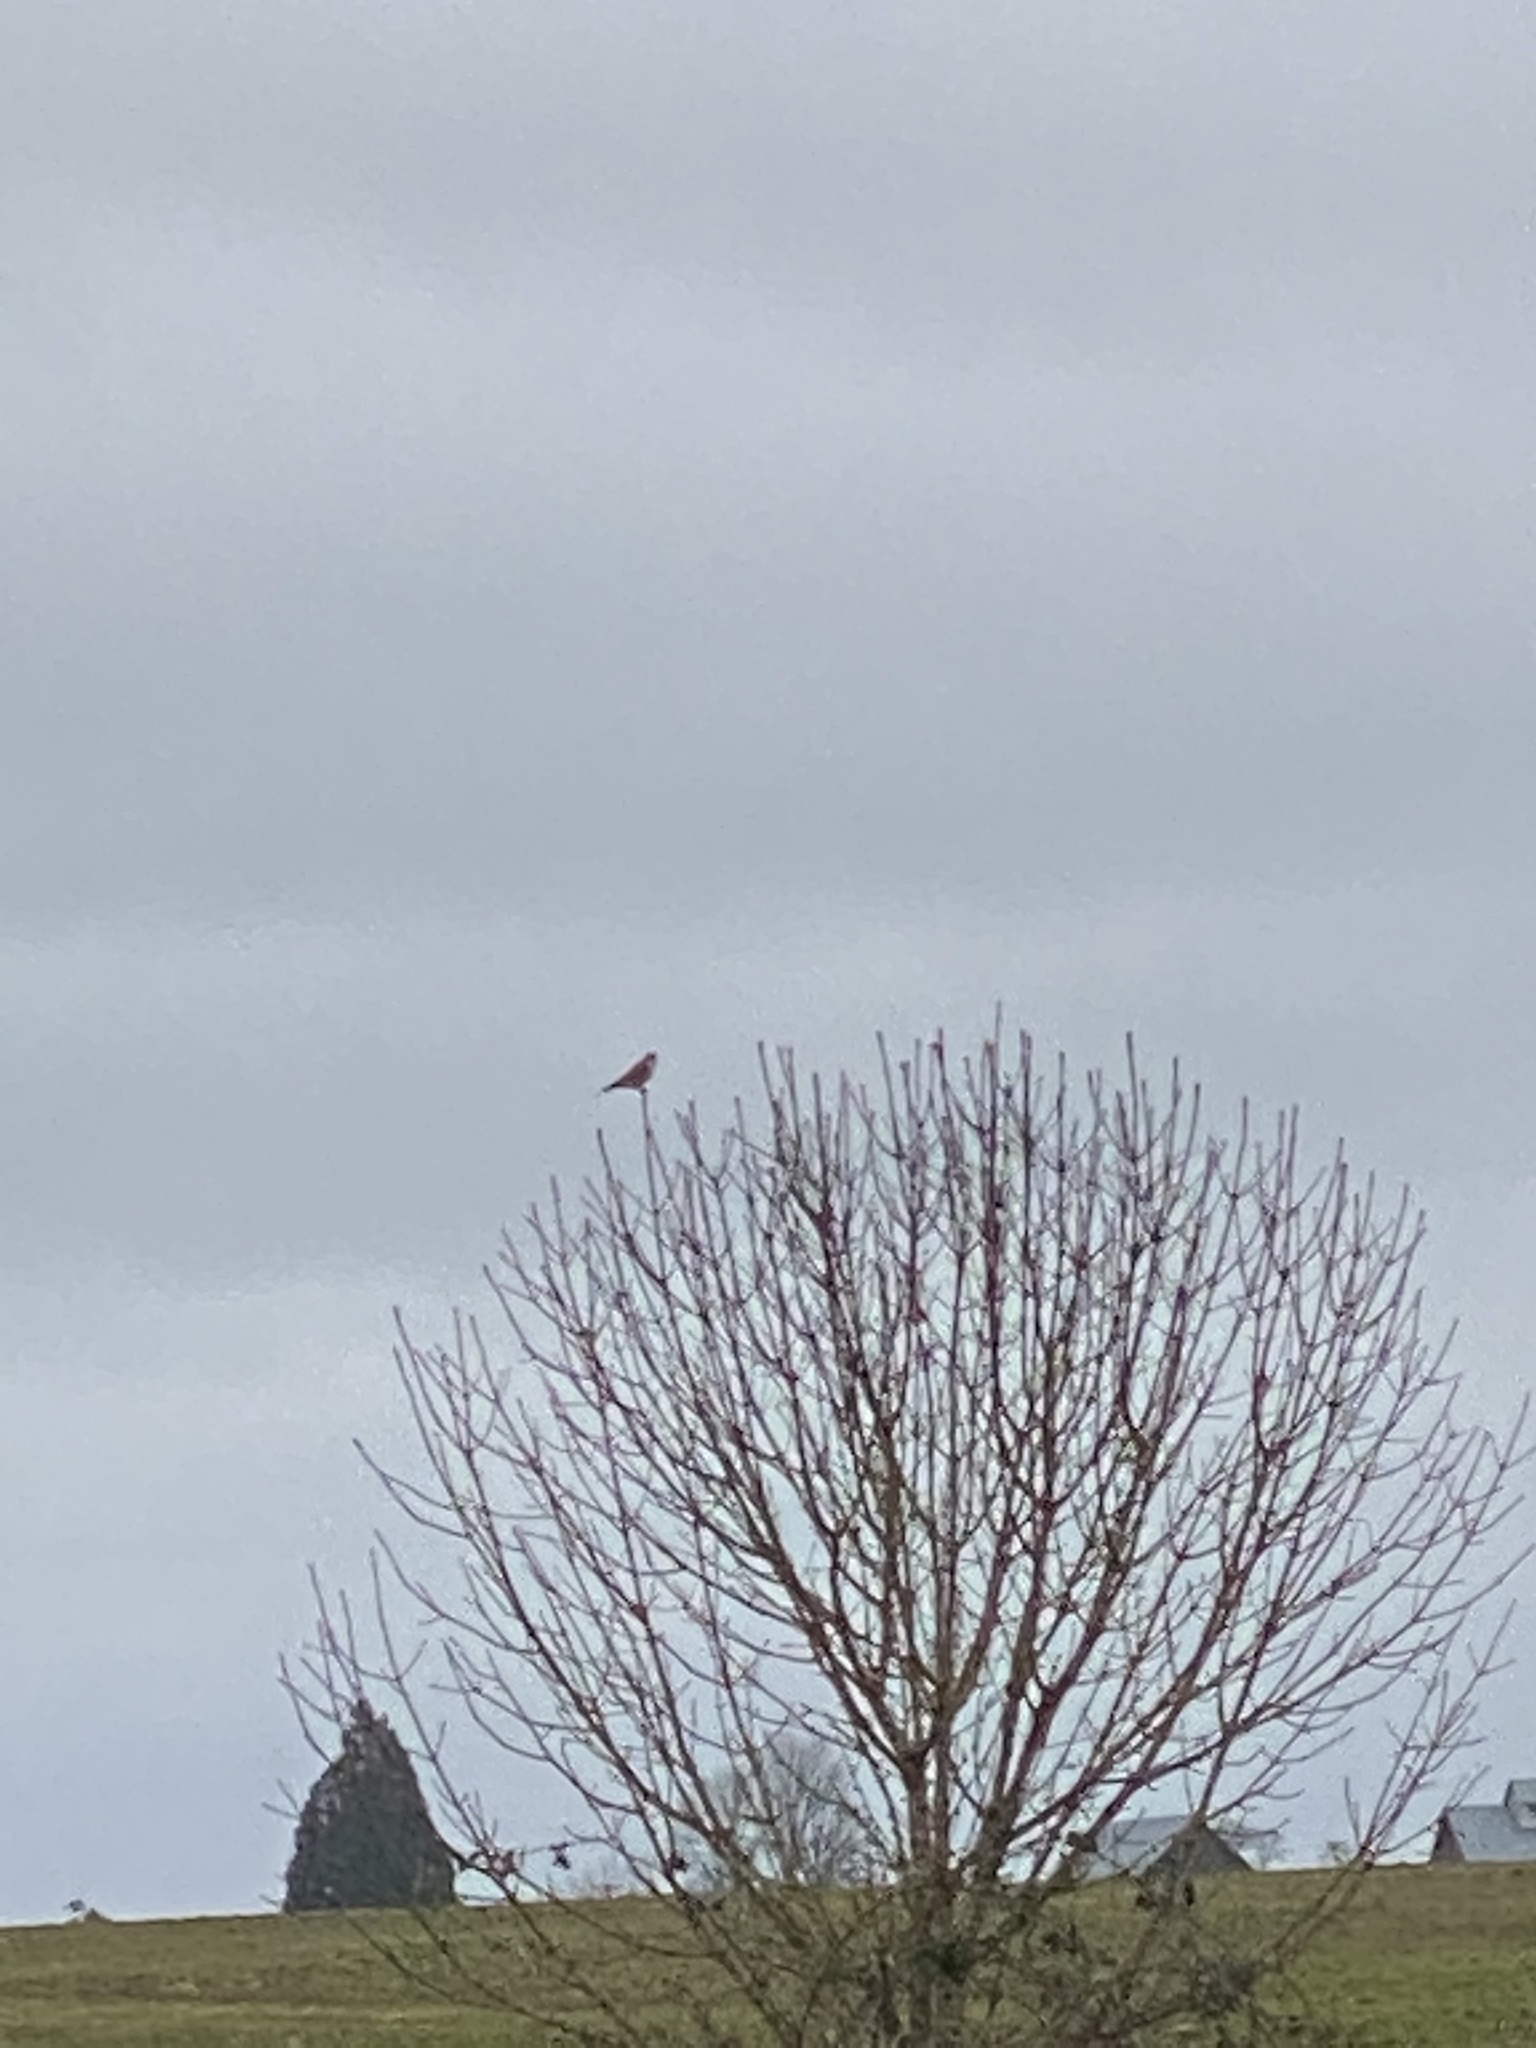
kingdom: Animalia
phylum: Chordata
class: Aves
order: Falconiformes
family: Falconidae
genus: Falco
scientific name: Falco sparverius
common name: American kestrel
